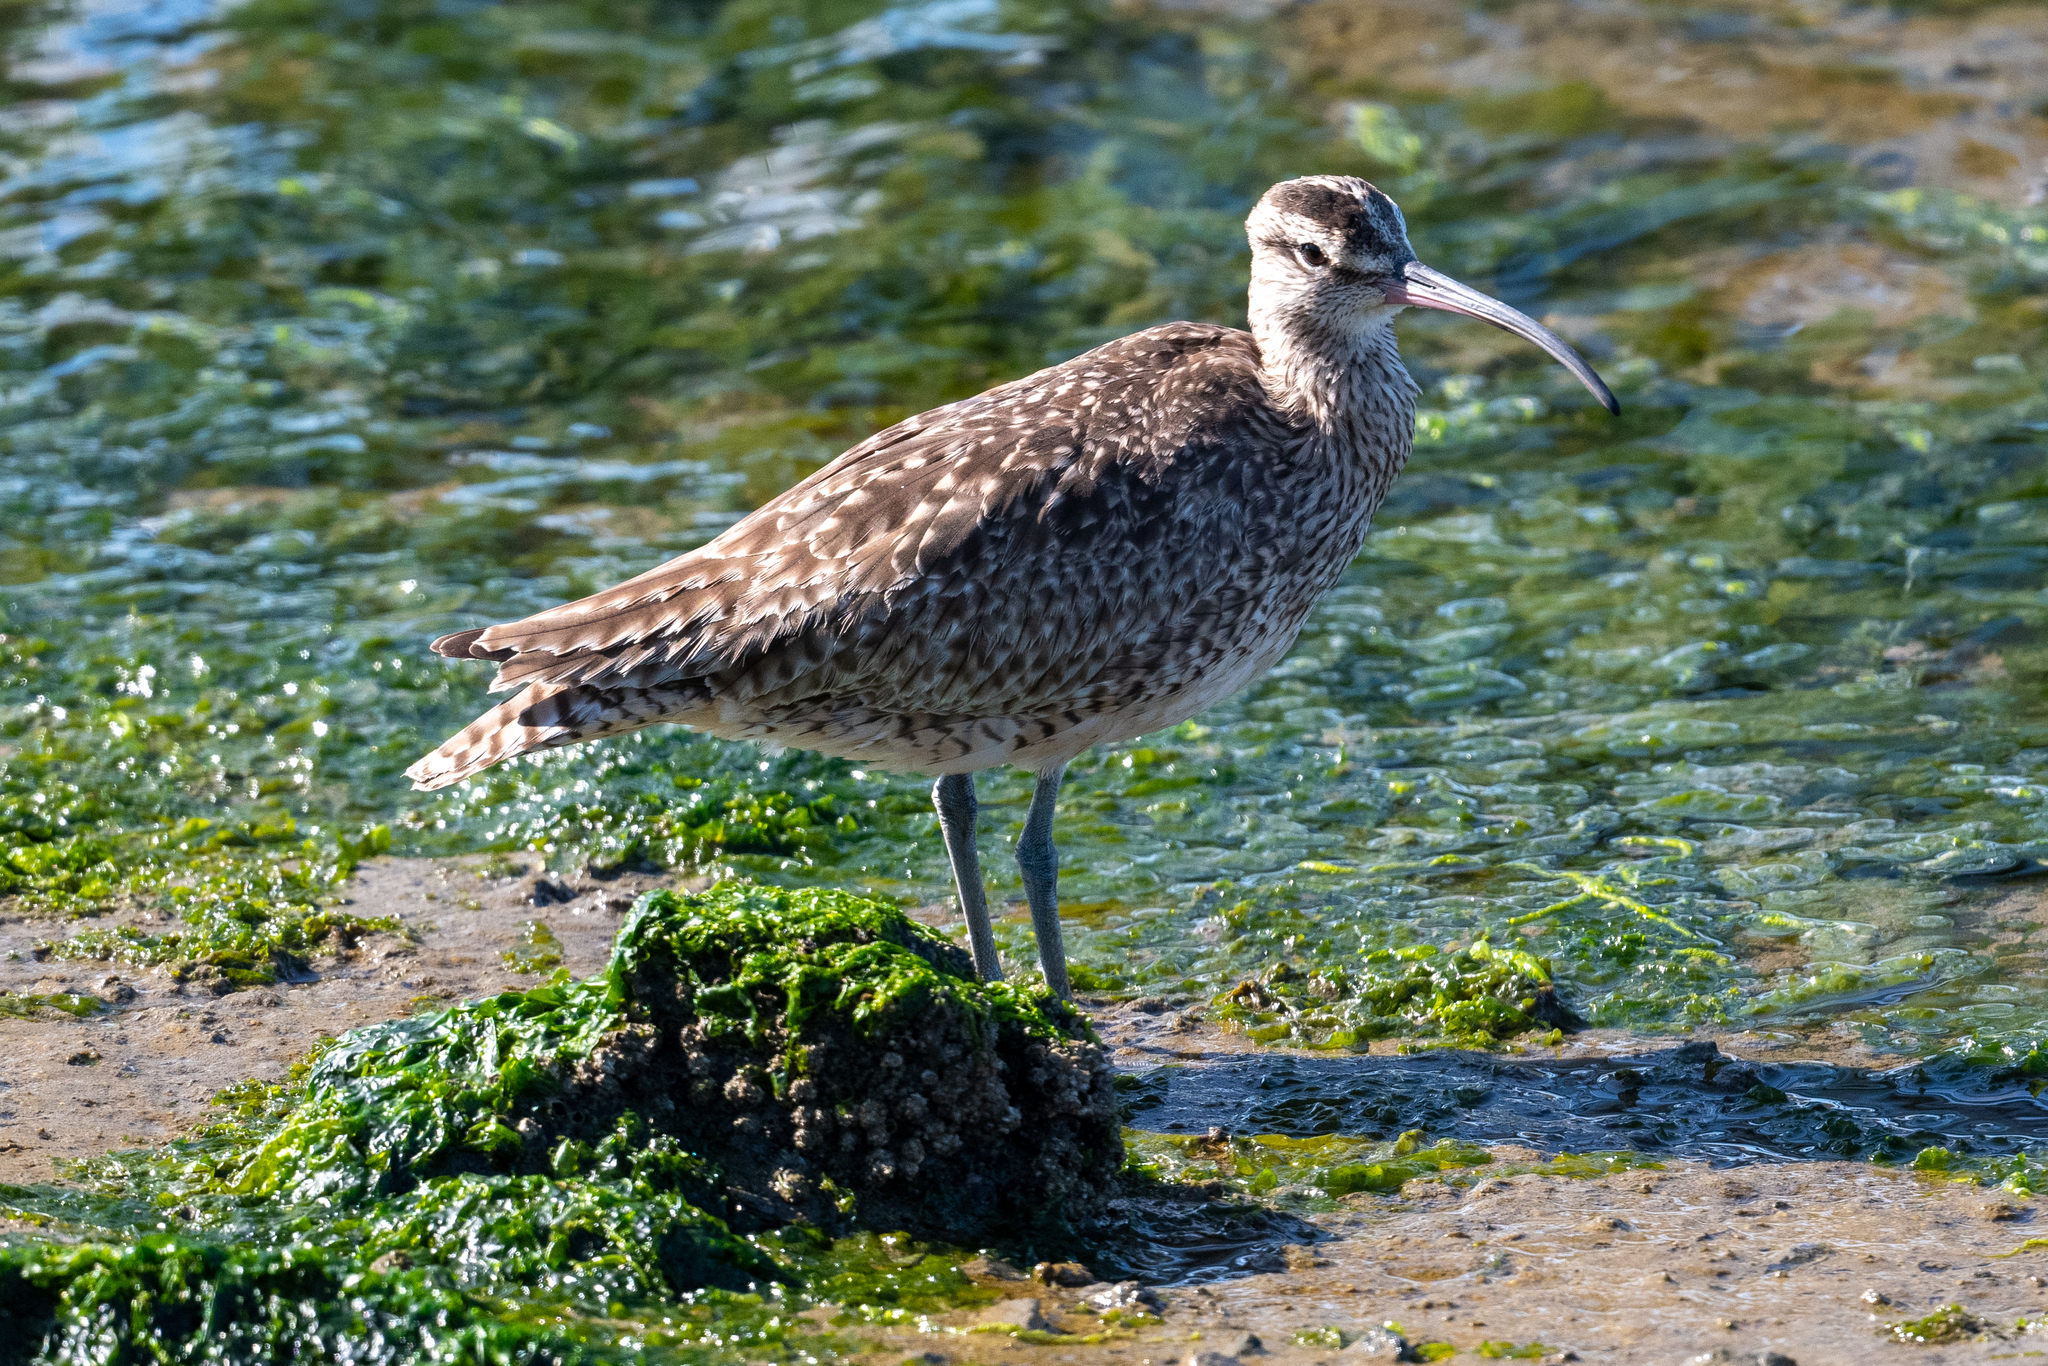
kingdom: Animalia
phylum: Chordata
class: Aves
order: Charadriiformes
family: Scolopacidae
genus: Numenius
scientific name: Numenius phaeopus
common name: Whimbrel
